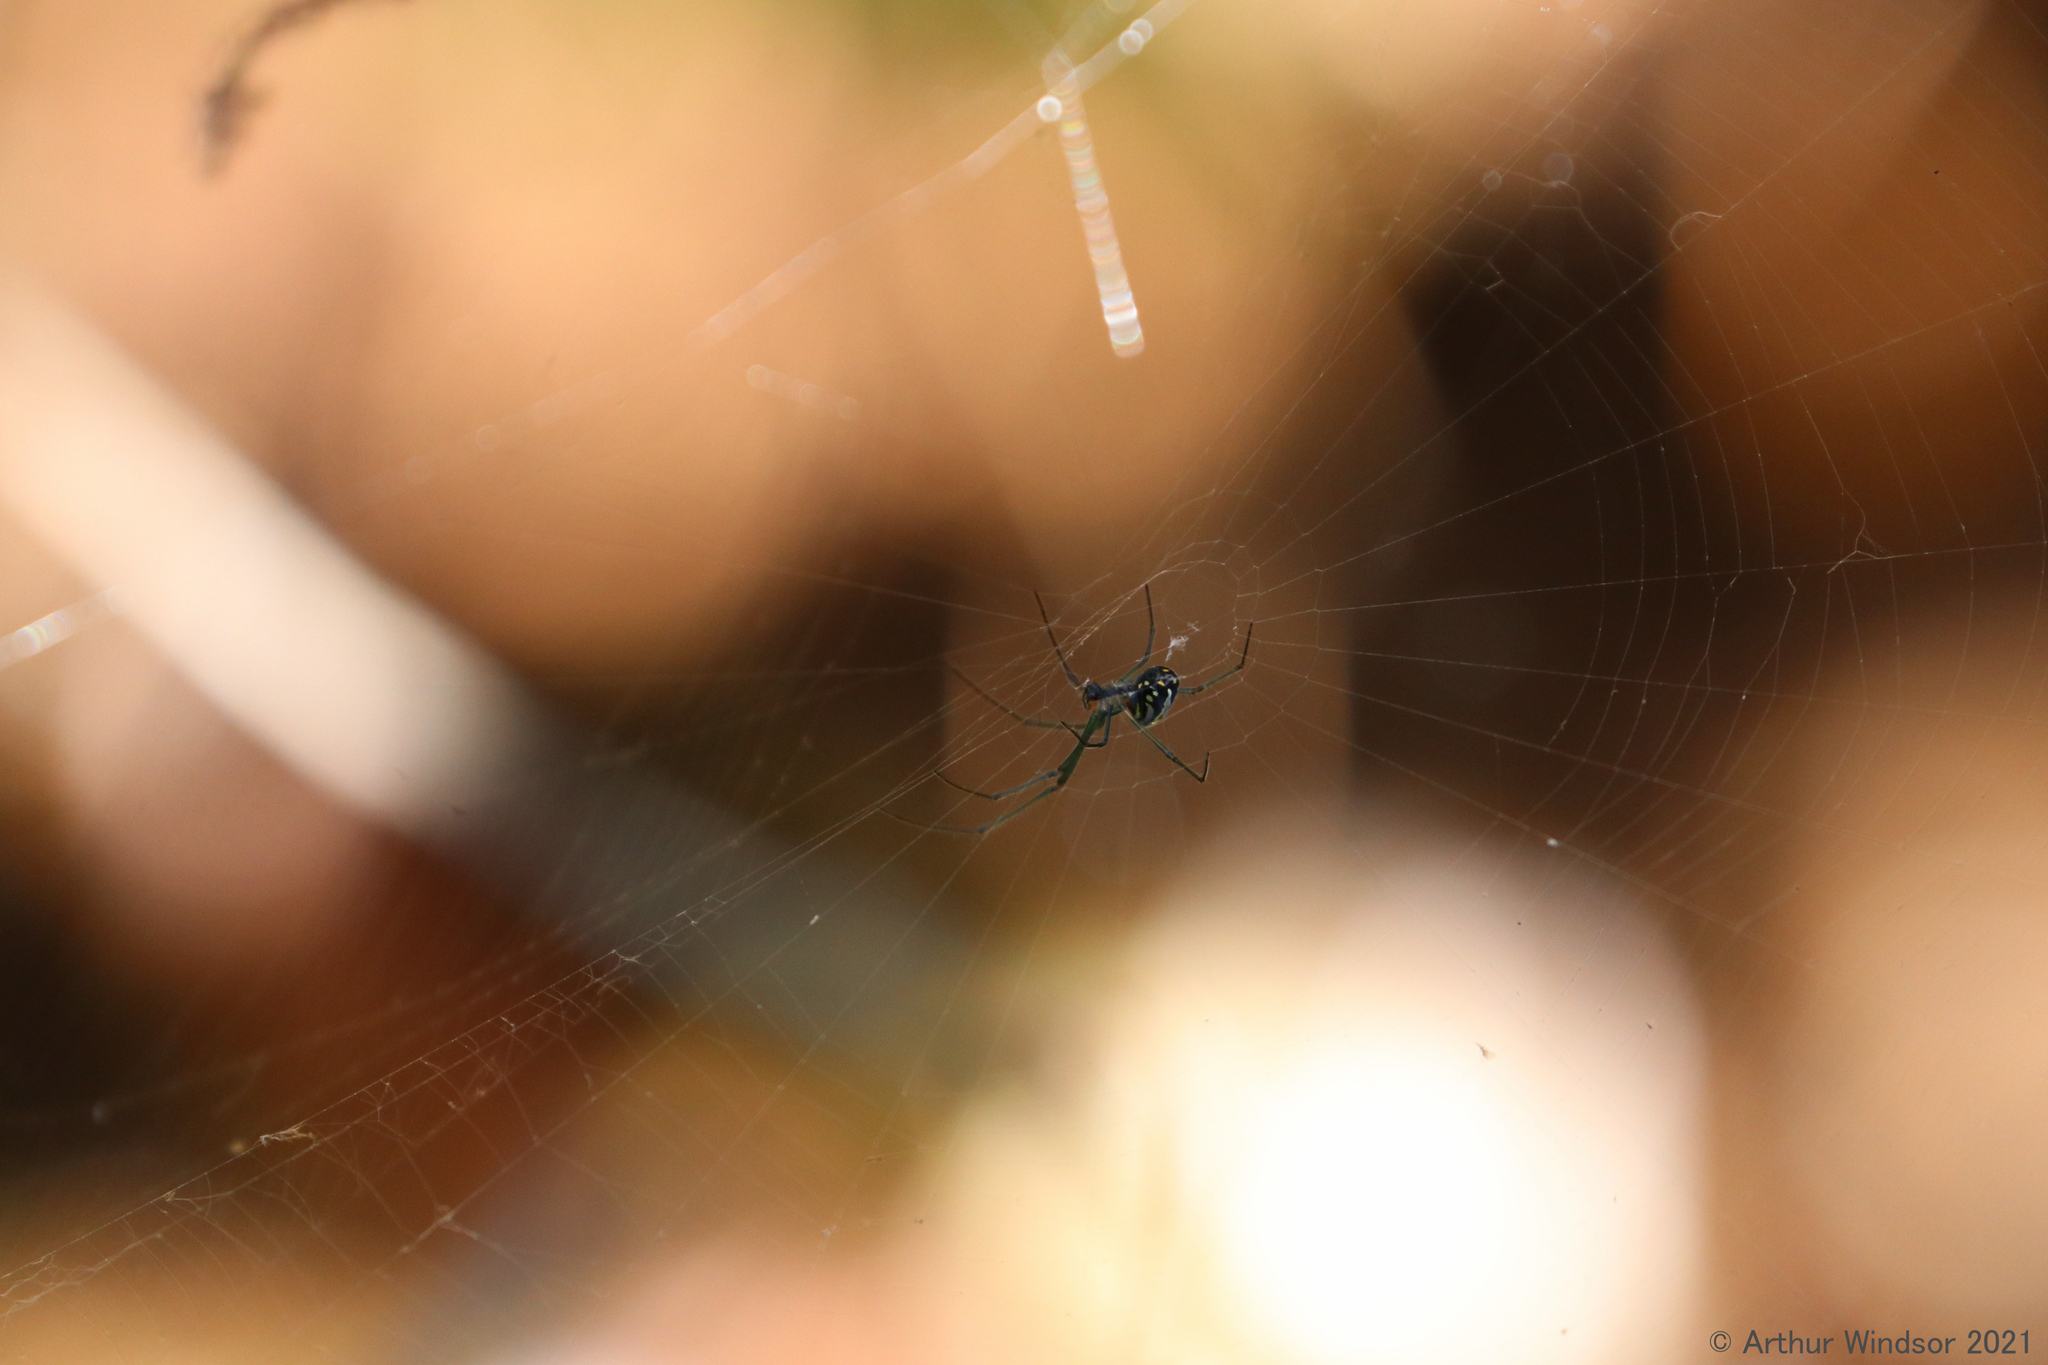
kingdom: Animalia
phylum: Arthropoda
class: Arachnida
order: Araneae
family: Tetragnathidae
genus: Leucauge
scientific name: Leucauge argyra
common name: Longjawed orb weavers
